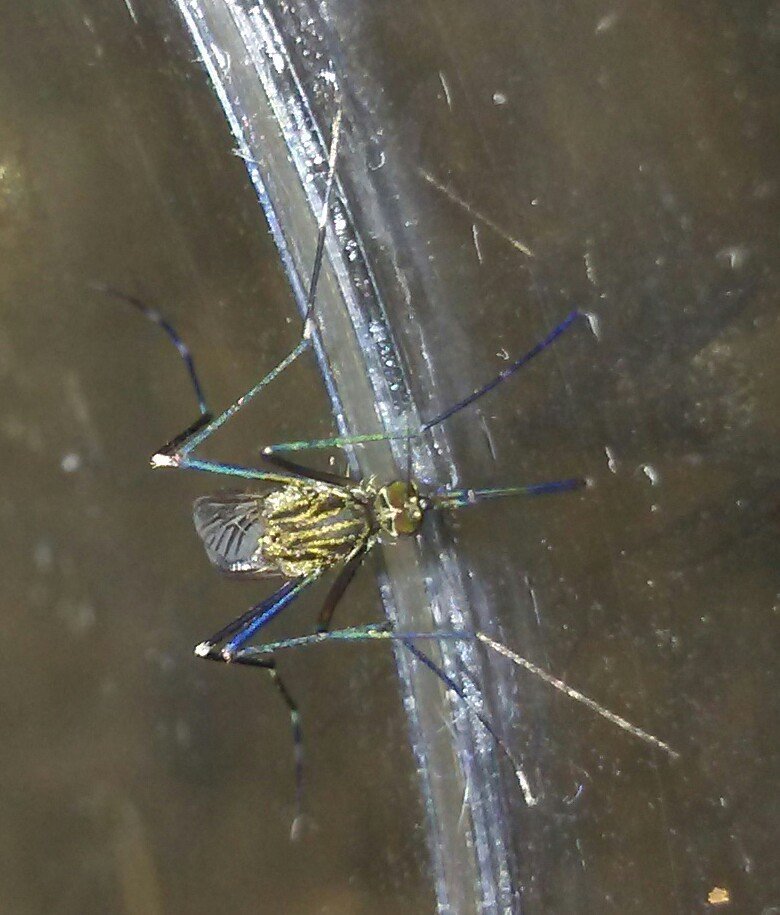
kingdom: Animalia
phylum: Arthropoda
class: Insecta
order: Diptera
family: Culicidae
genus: Aedes
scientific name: Aedes japonicus
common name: Asian bush mosquito
